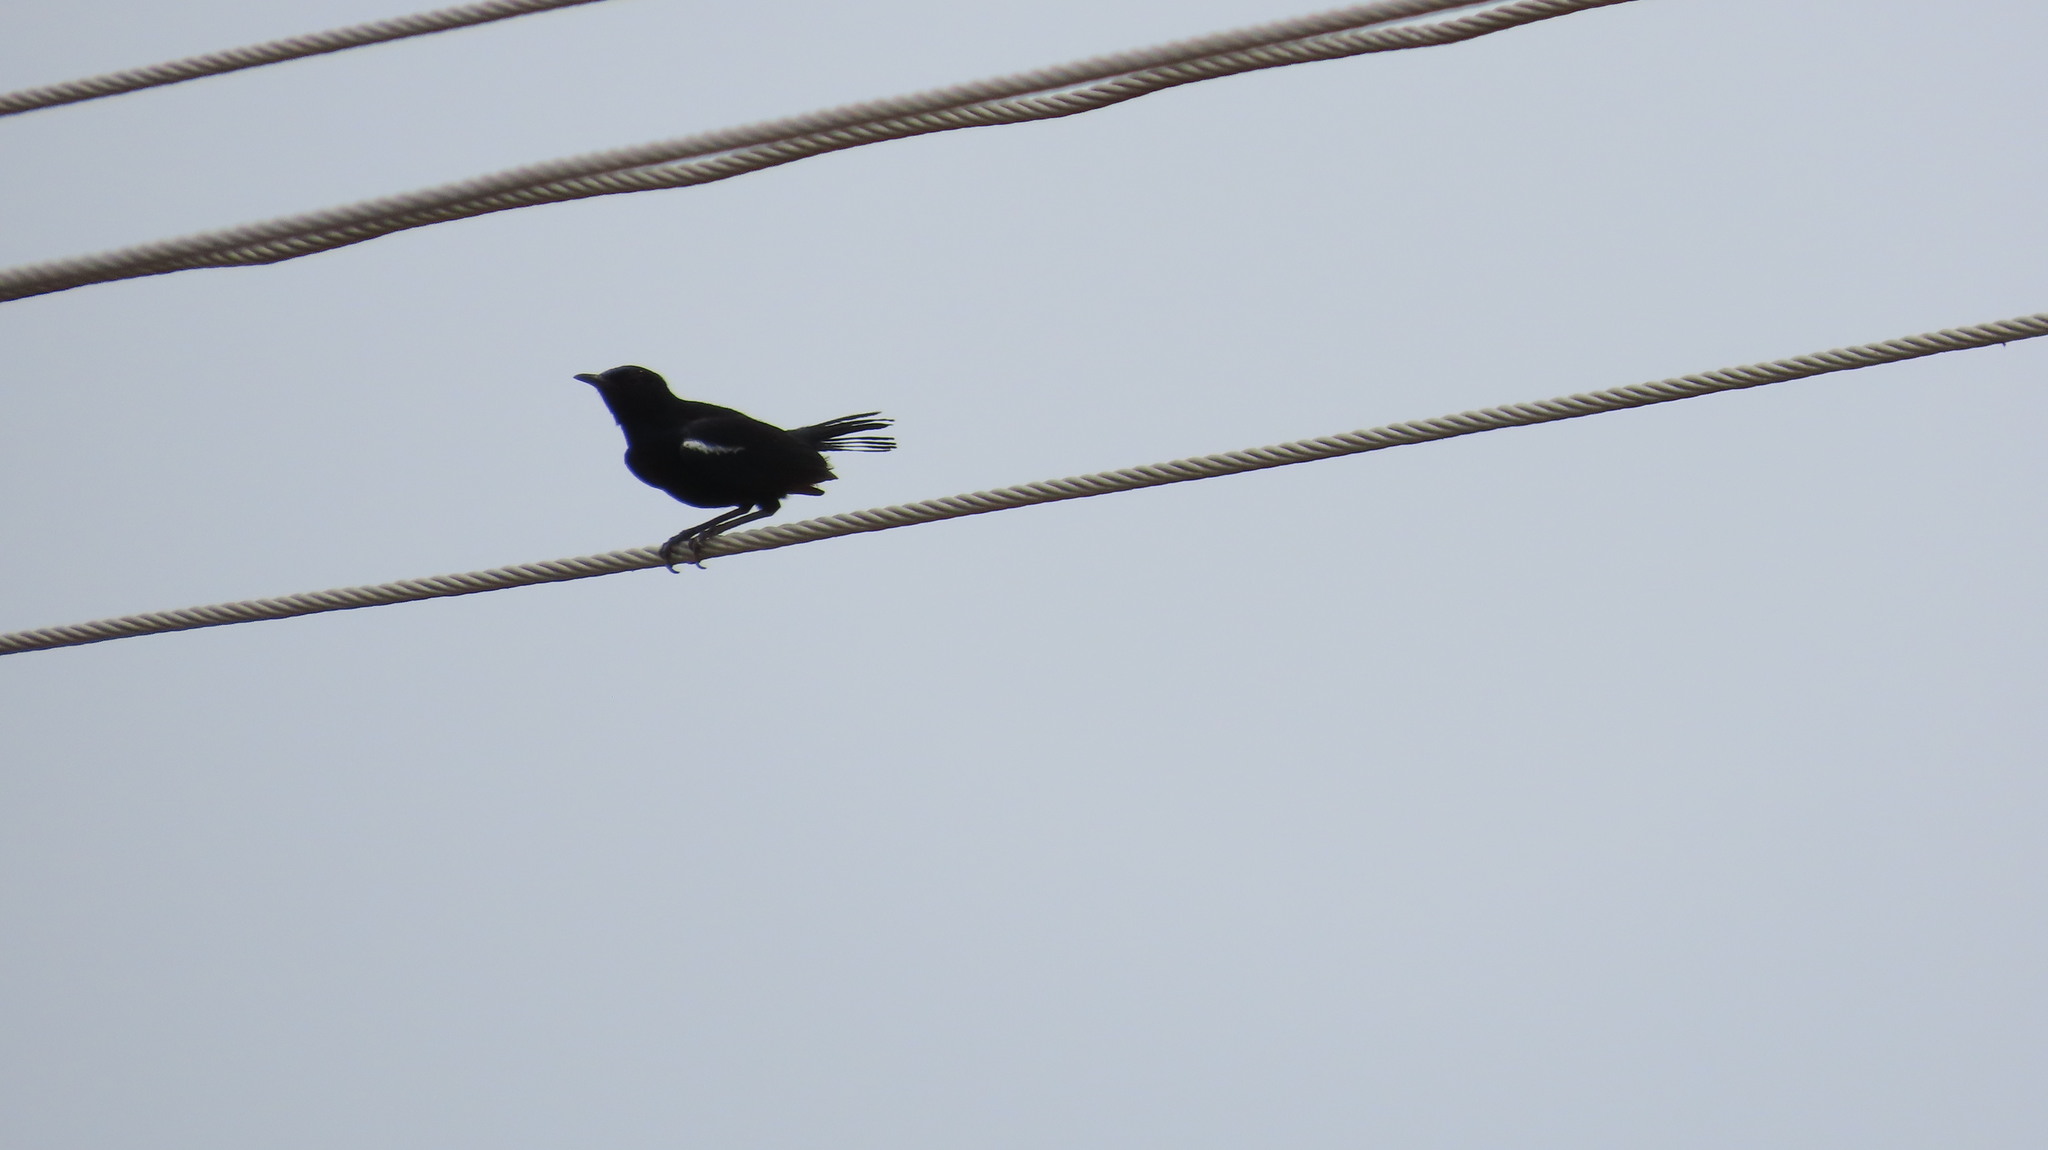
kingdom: Animalia
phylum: Chordata
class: Aves
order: Passeriformes
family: Muscicapidae
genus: Saxicoloides
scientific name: Saxicoloides fulicatus
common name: Indian robin
